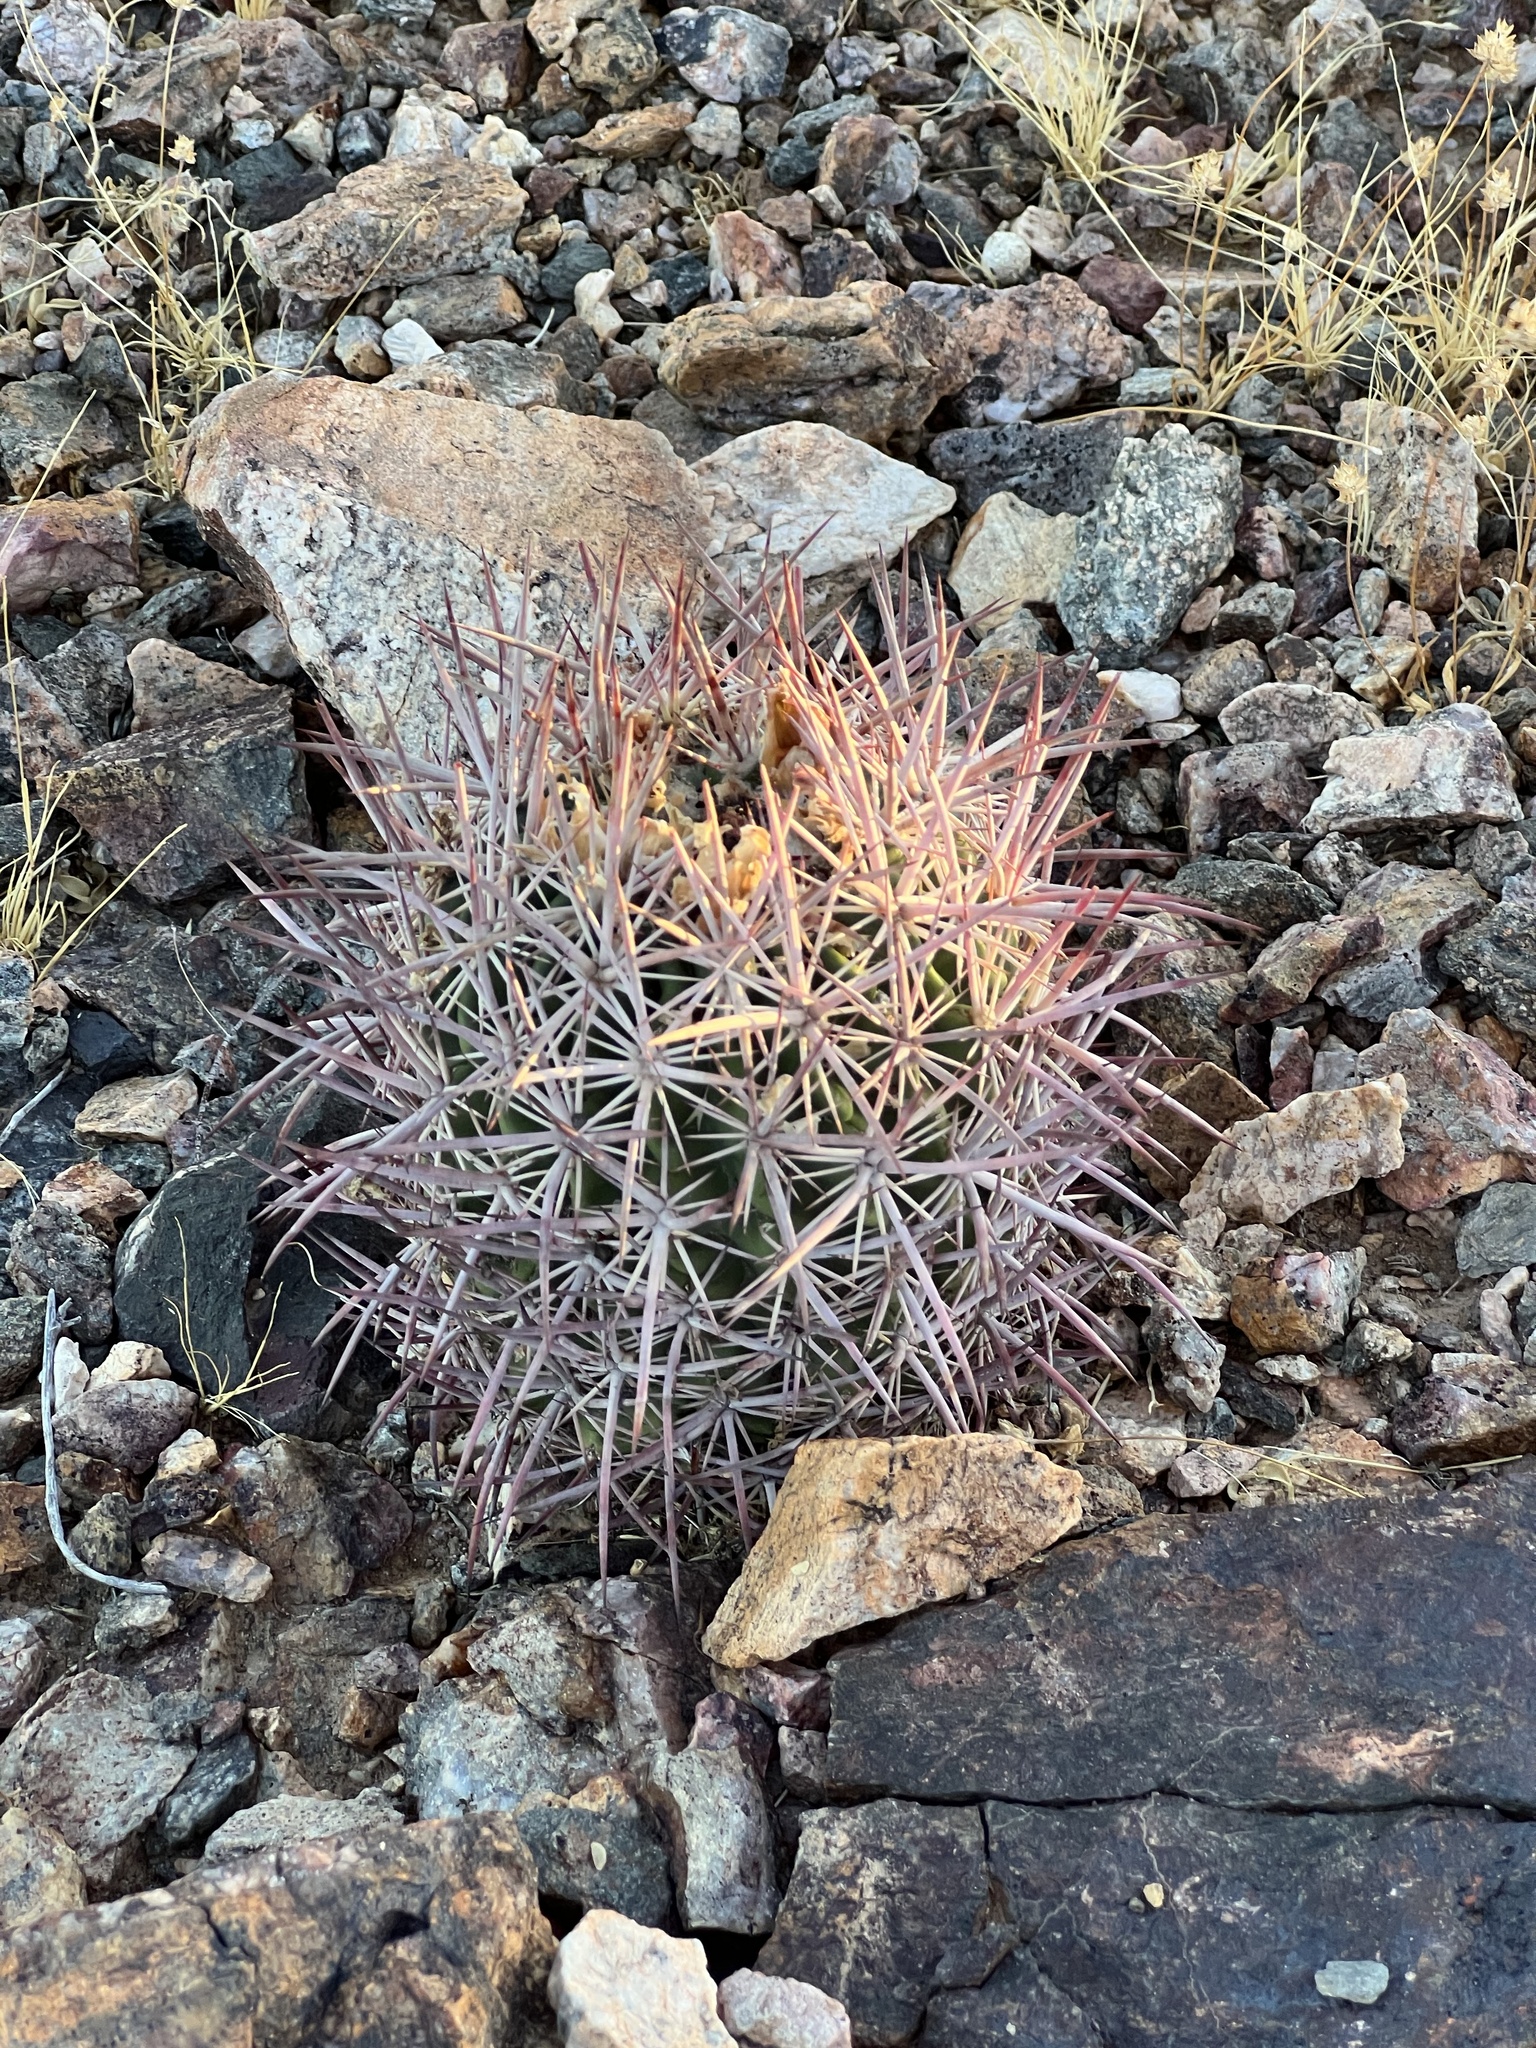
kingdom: Plantae
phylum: Tracheophyta
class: Magnoliopsida
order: Caryophyllales
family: Cactaceae
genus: Sclerocactus
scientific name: Sclerocactus johnsonii
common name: Eight-spine fishhook cactus
